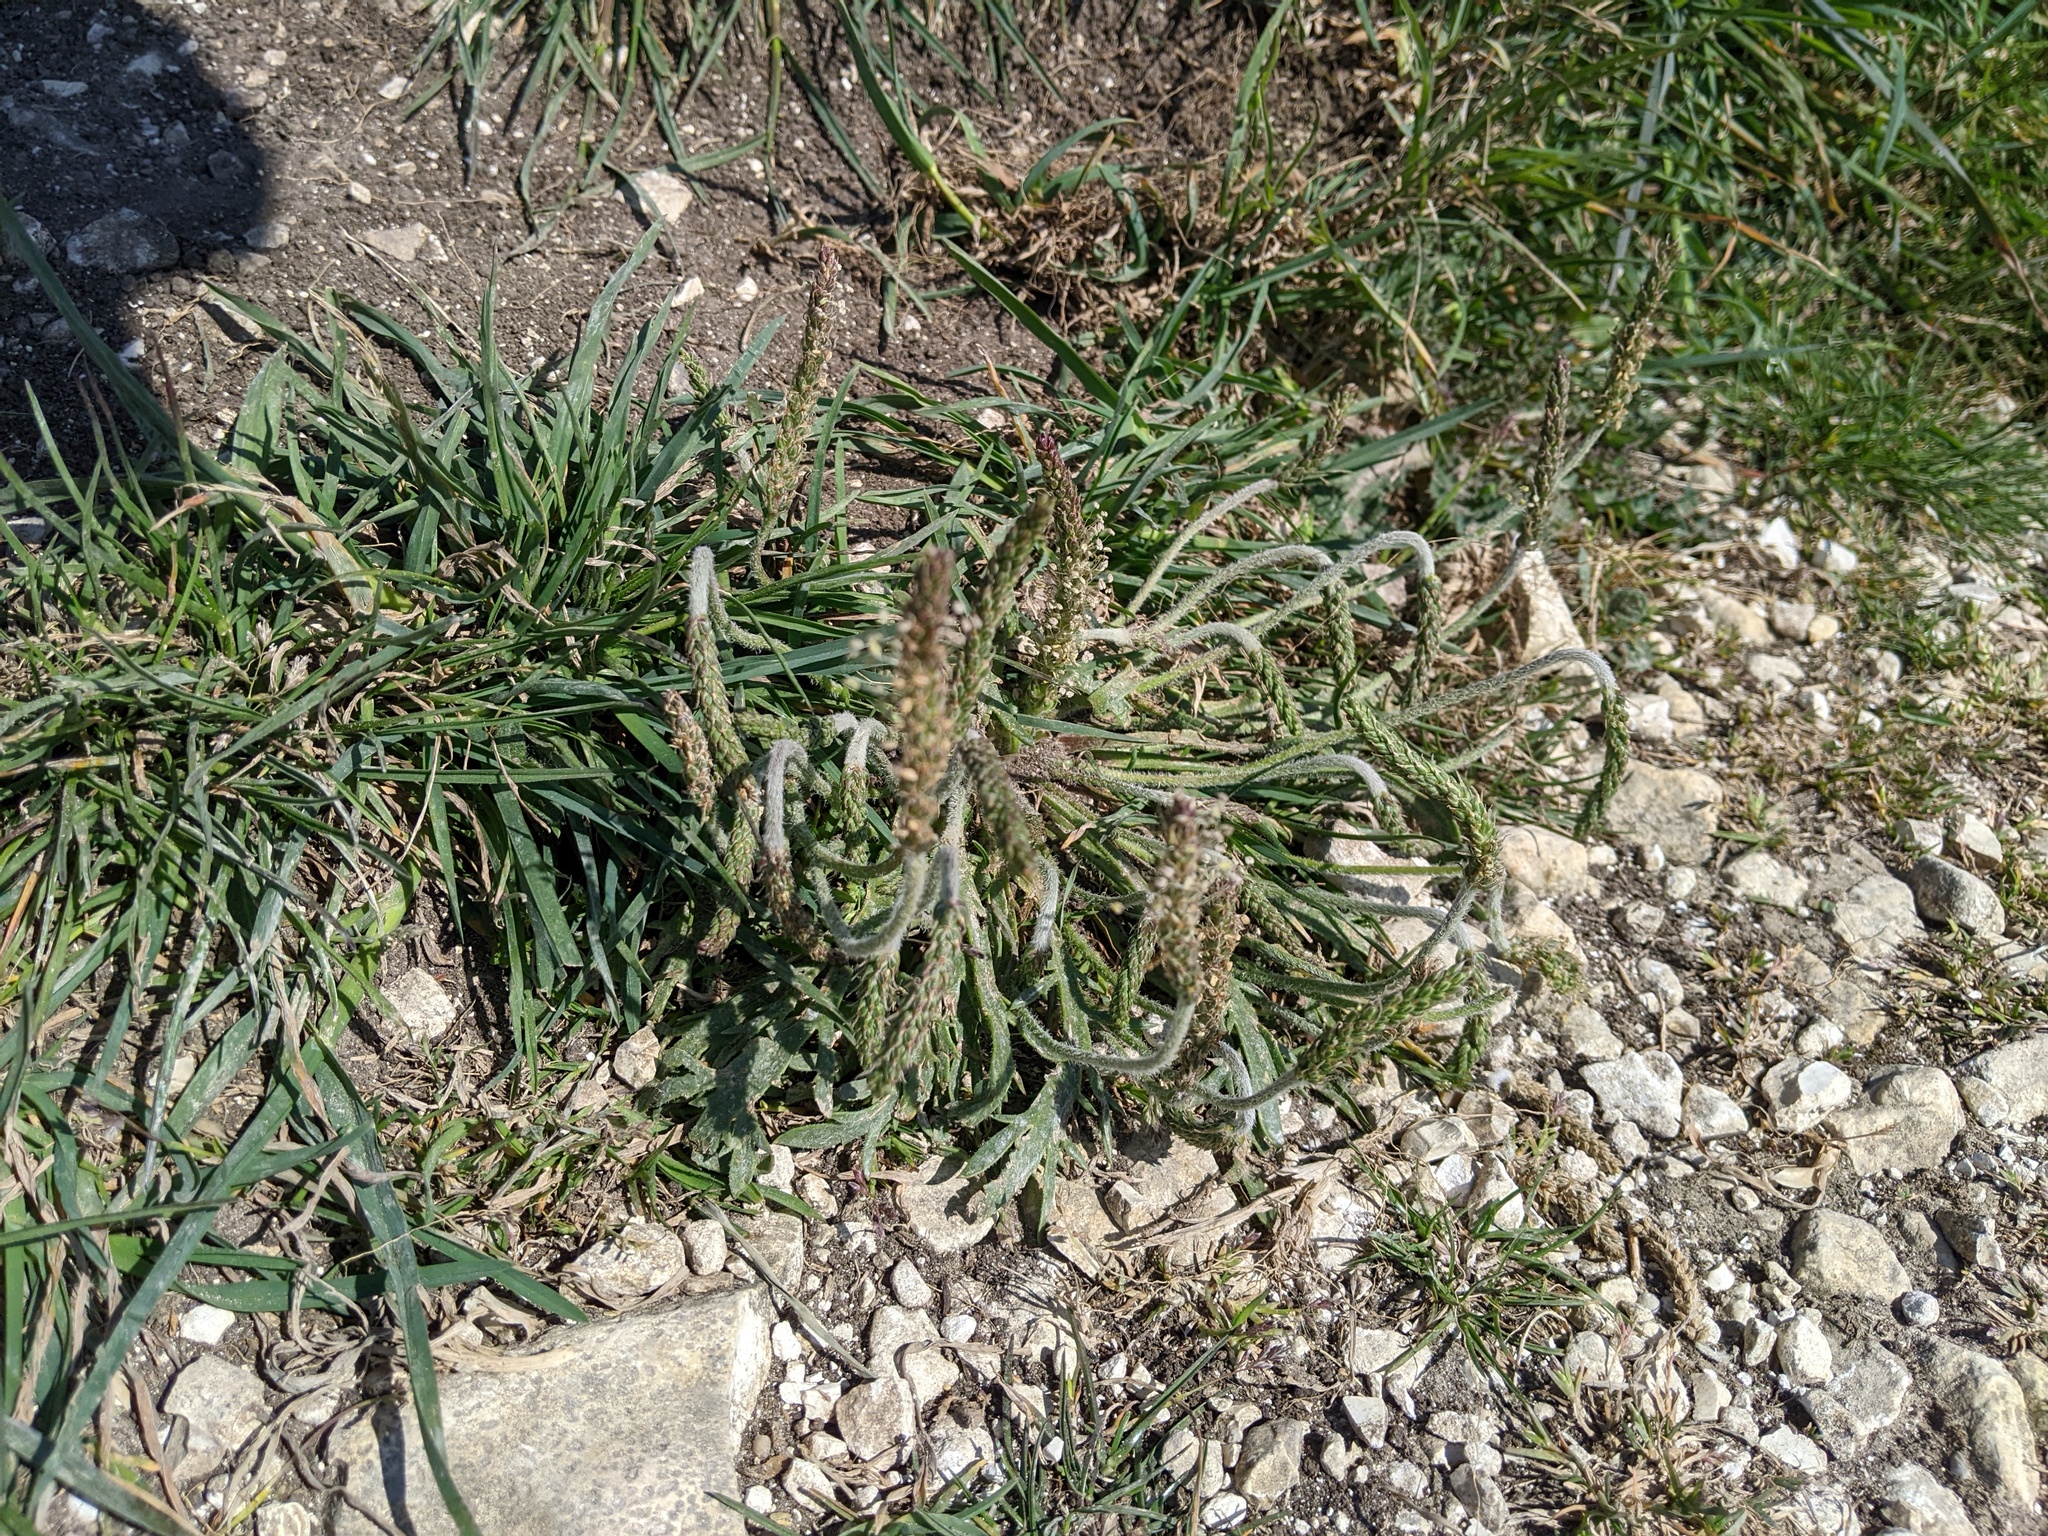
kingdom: Plantae
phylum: Tracheophyta
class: Magnoliopsida
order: Lamiales
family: Plantaginaceae
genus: Plantago
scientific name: Plantago coronopus
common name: Buck's-horn plantain
